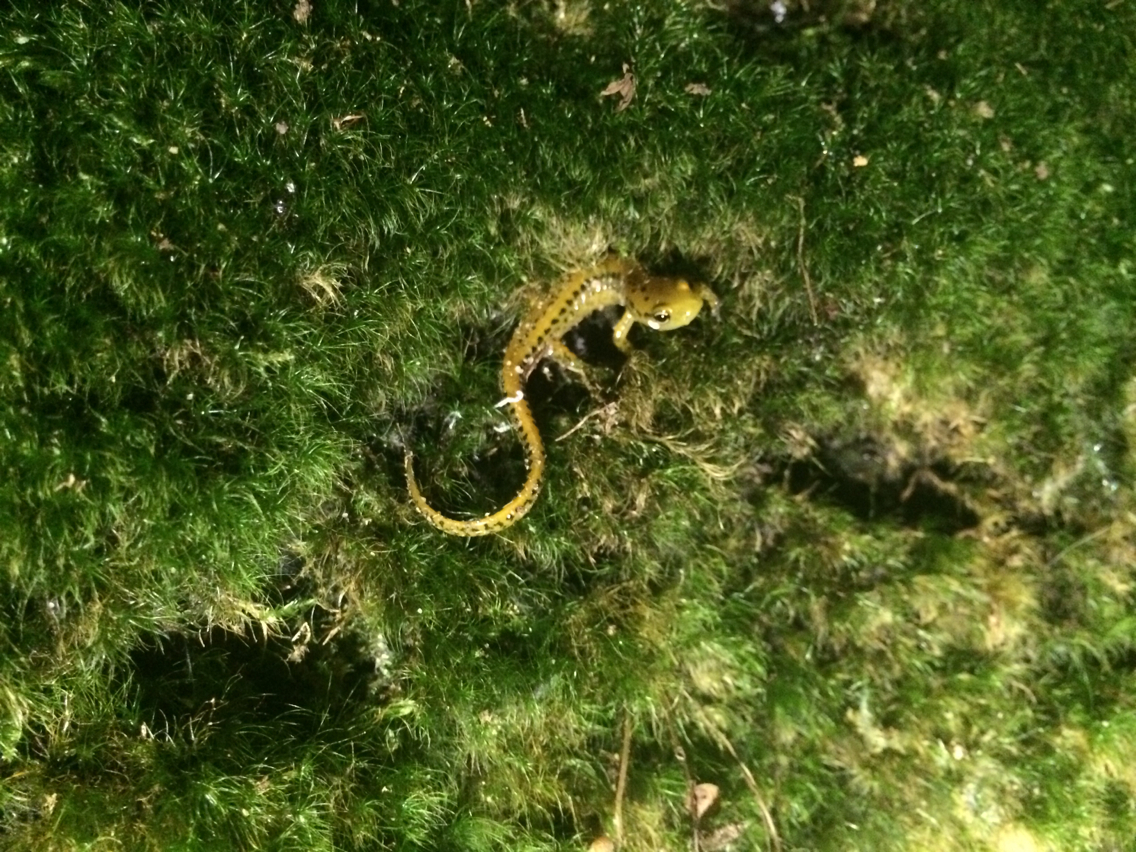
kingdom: Animalia
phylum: Chordata
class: Amphibia
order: Caudata
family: Plethodontidae
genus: Eurycea
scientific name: Eurycea longicauda
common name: Long-tailed salamander
